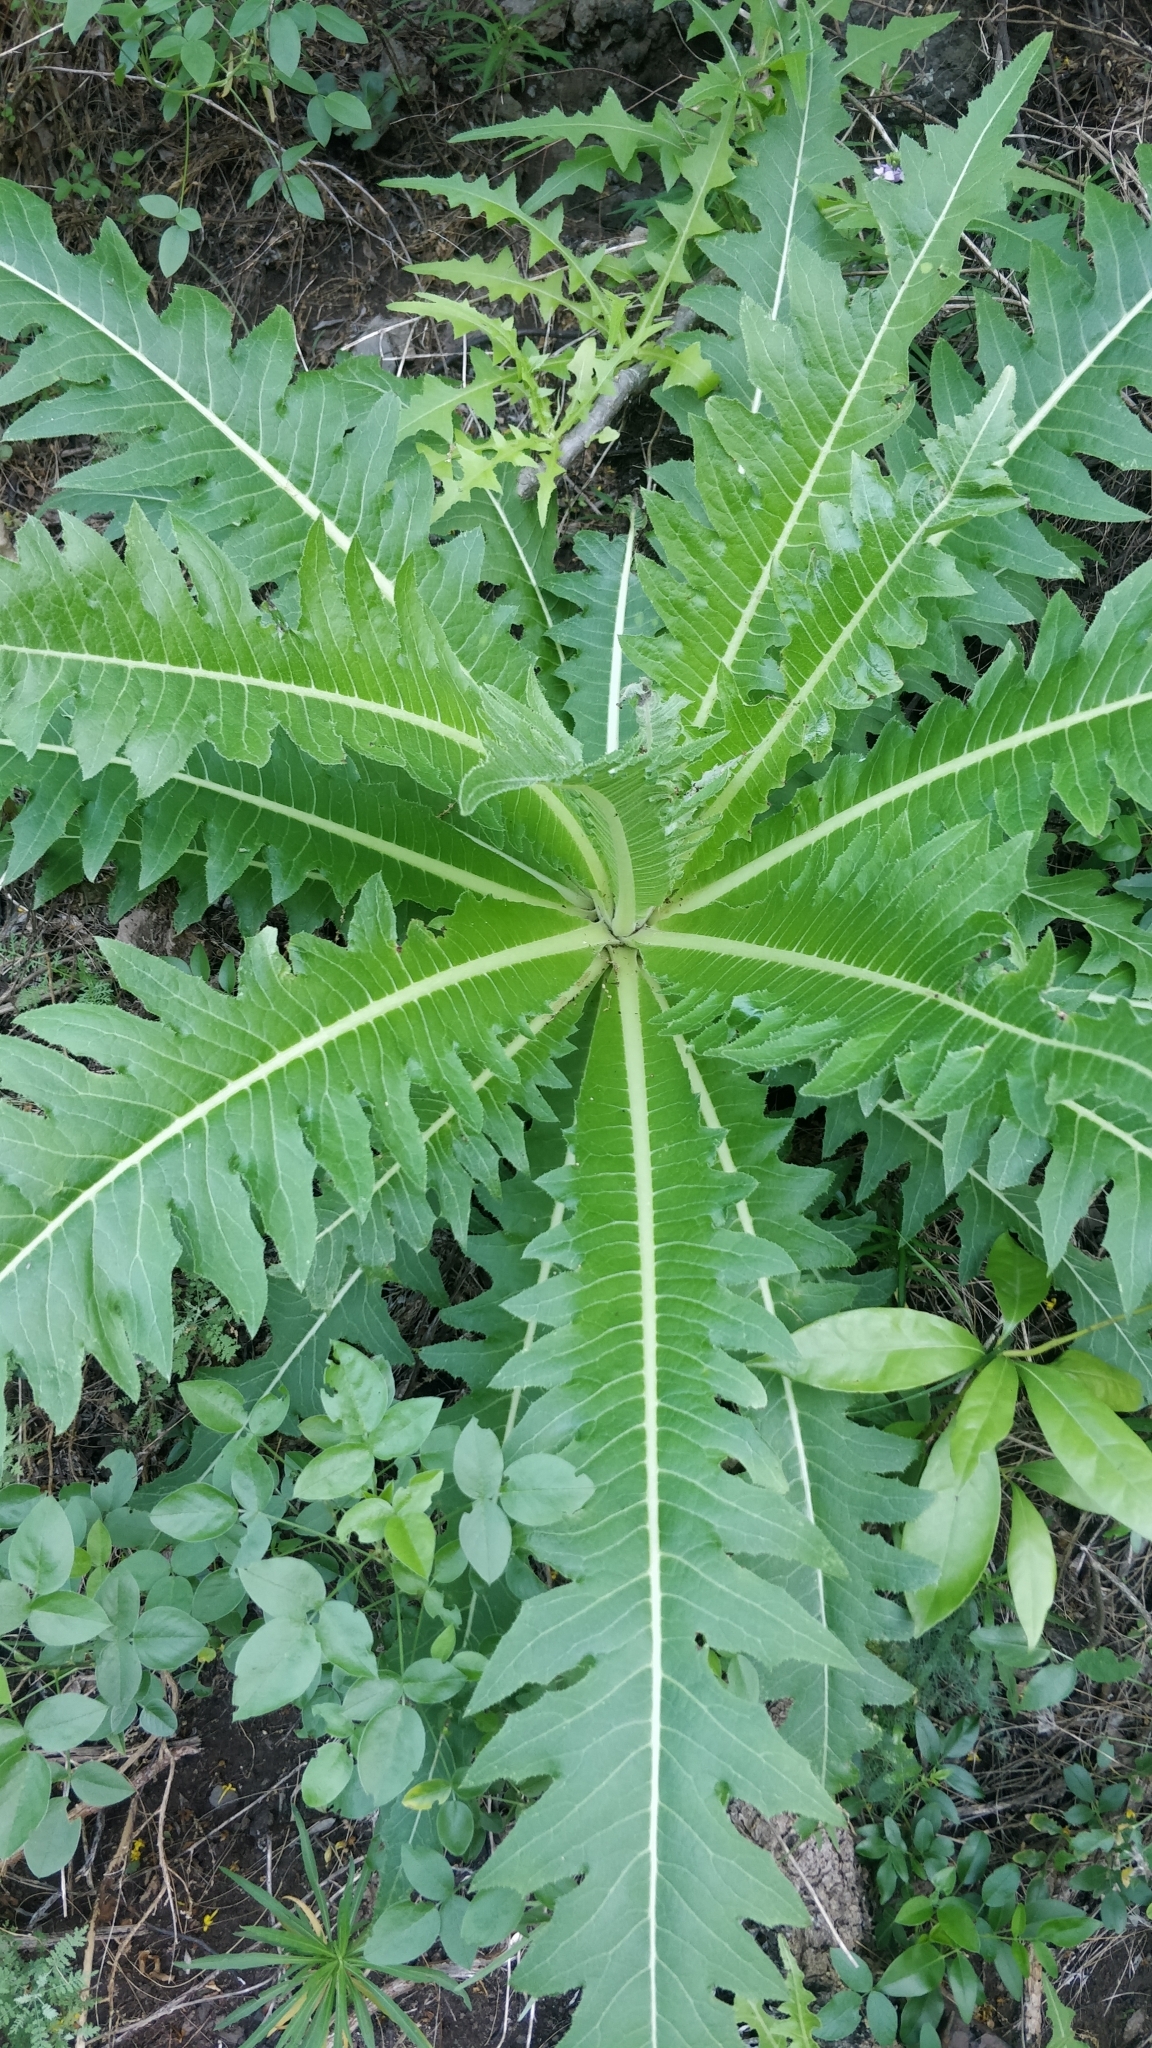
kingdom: Plantae
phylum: Tracheophyta
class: Magnoliopsida
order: Asterales
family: Asteraceae
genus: Sonchus
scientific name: Sonchus acaulis
